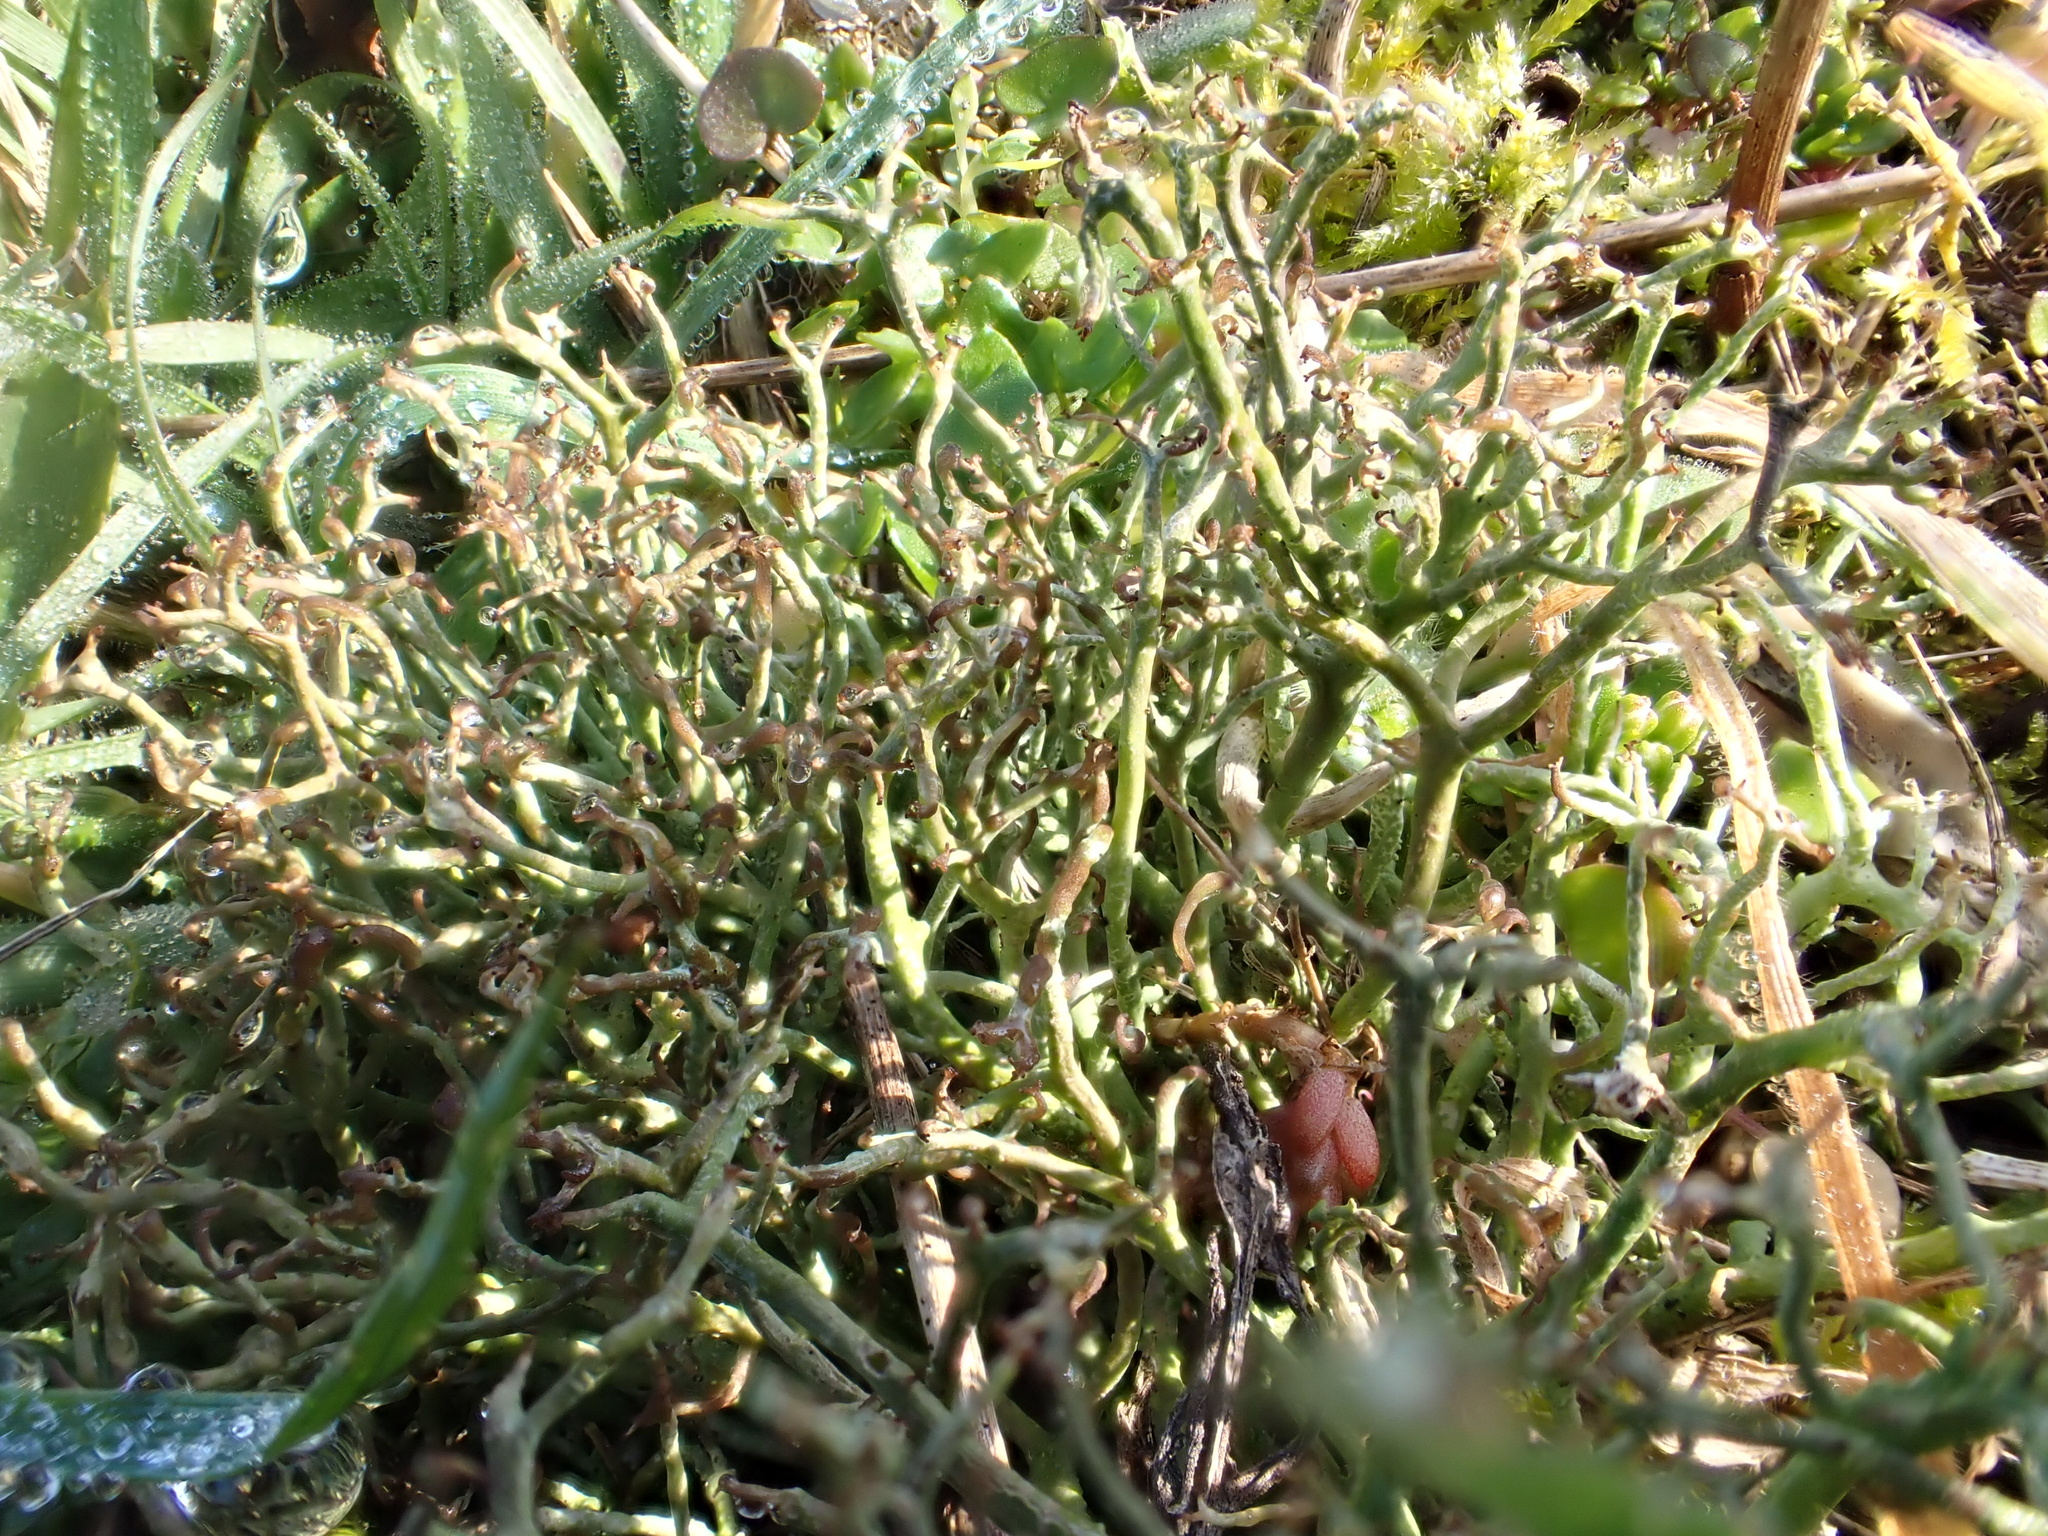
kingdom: Fungi
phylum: Ascomycota
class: Lecanoromycetes
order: Lecanorales
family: Cladoniaceae
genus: Cladonia
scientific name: Cladonia furcata
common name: Many-forked cladonia
